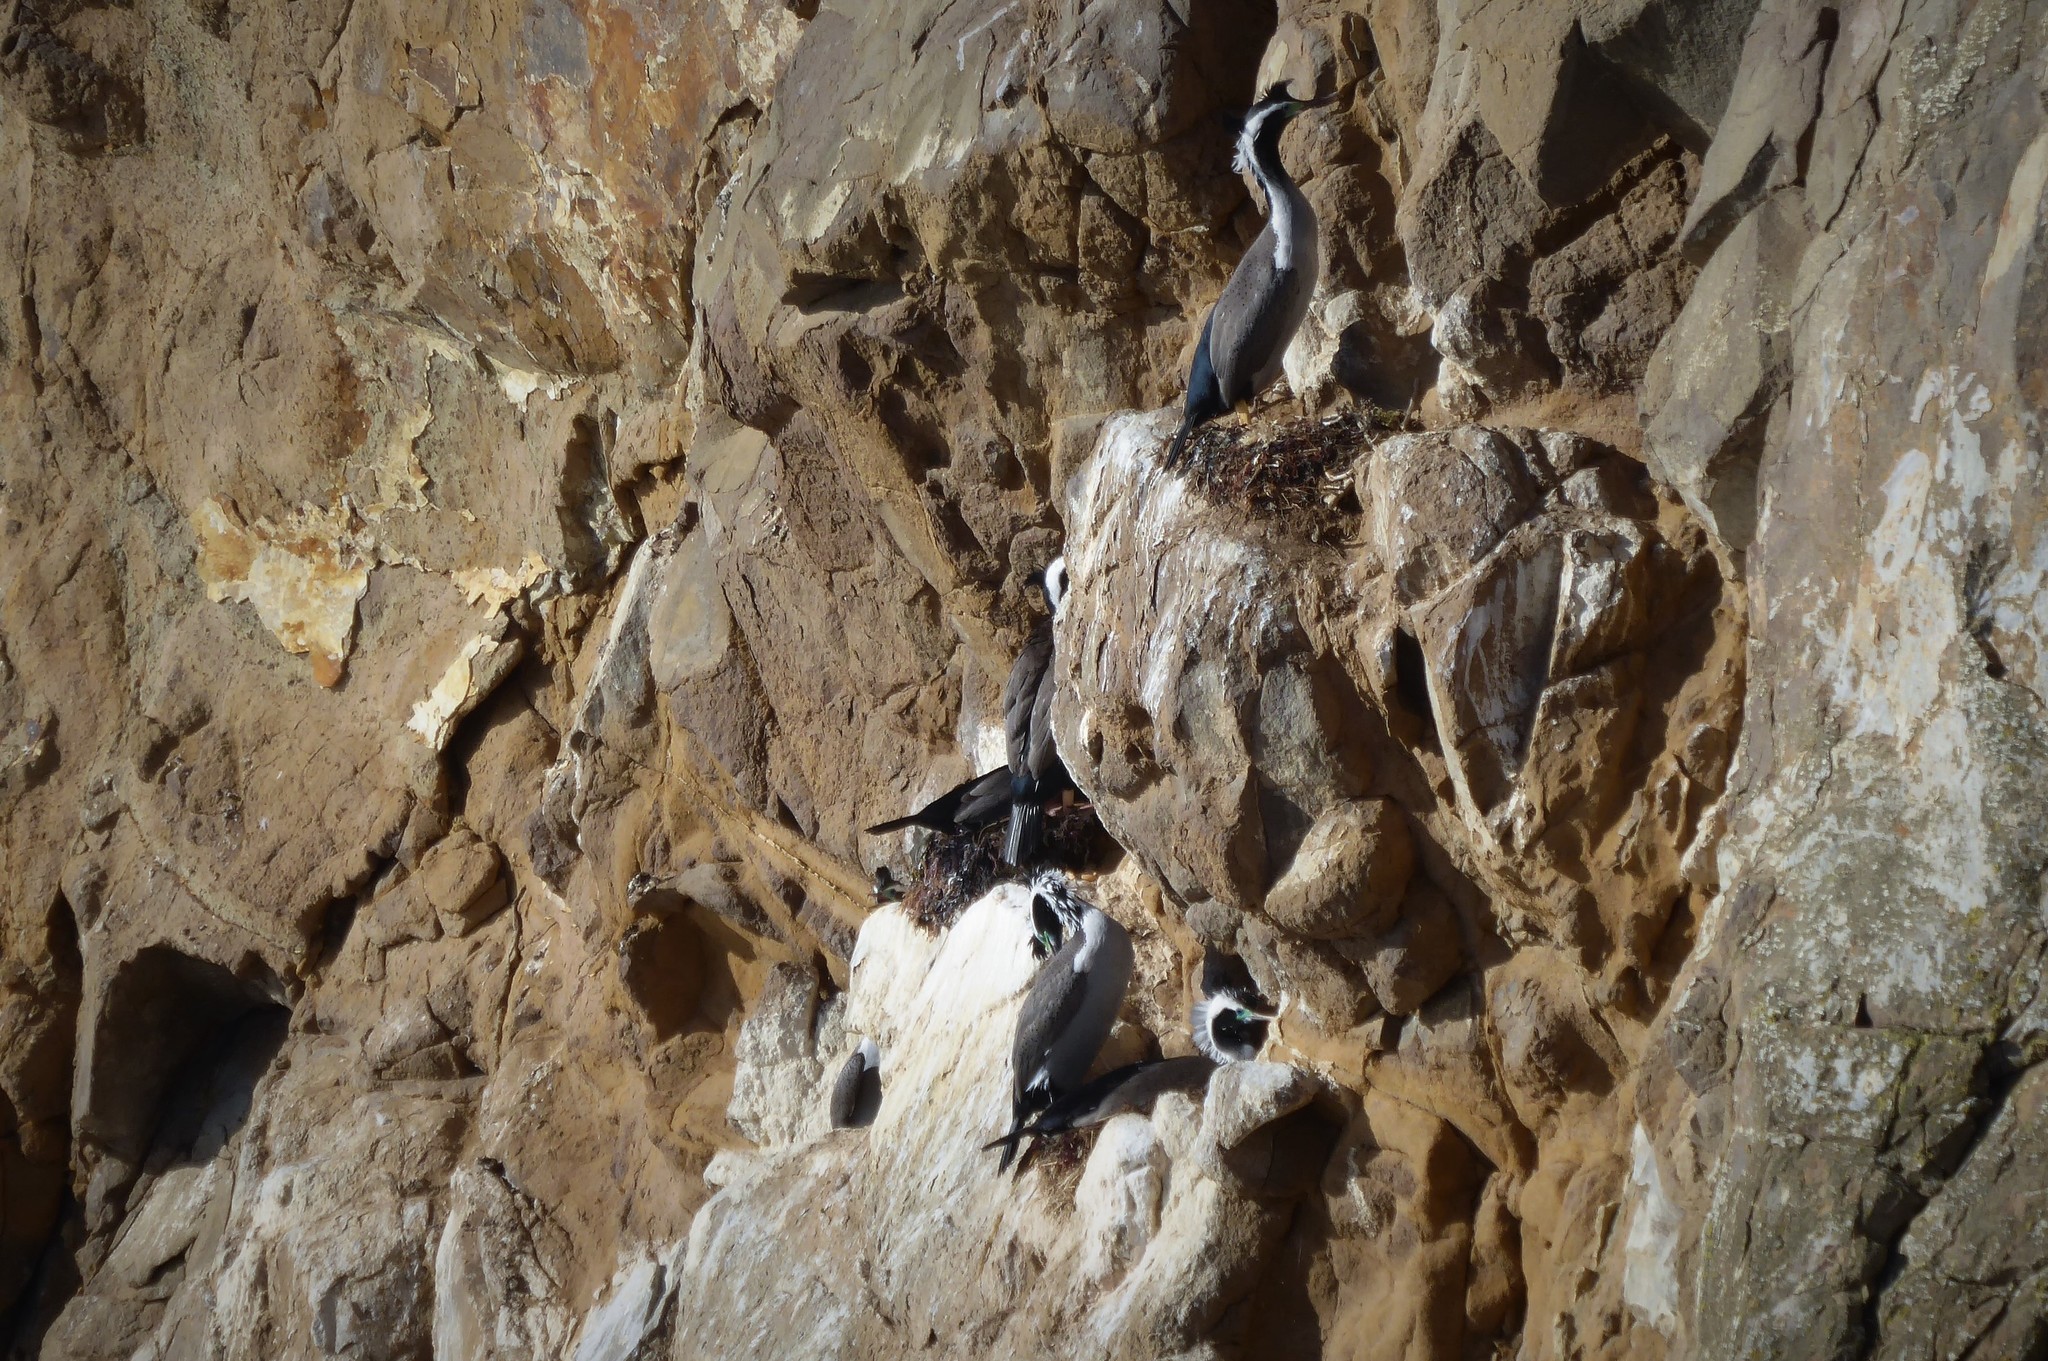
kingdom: Animalia
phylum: Chordata
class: Aves
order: Suliformes
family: Phalacrocoracidae
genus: Phalacrocorax
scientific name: Phalacrocorax punctatus
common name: Spotted shag
